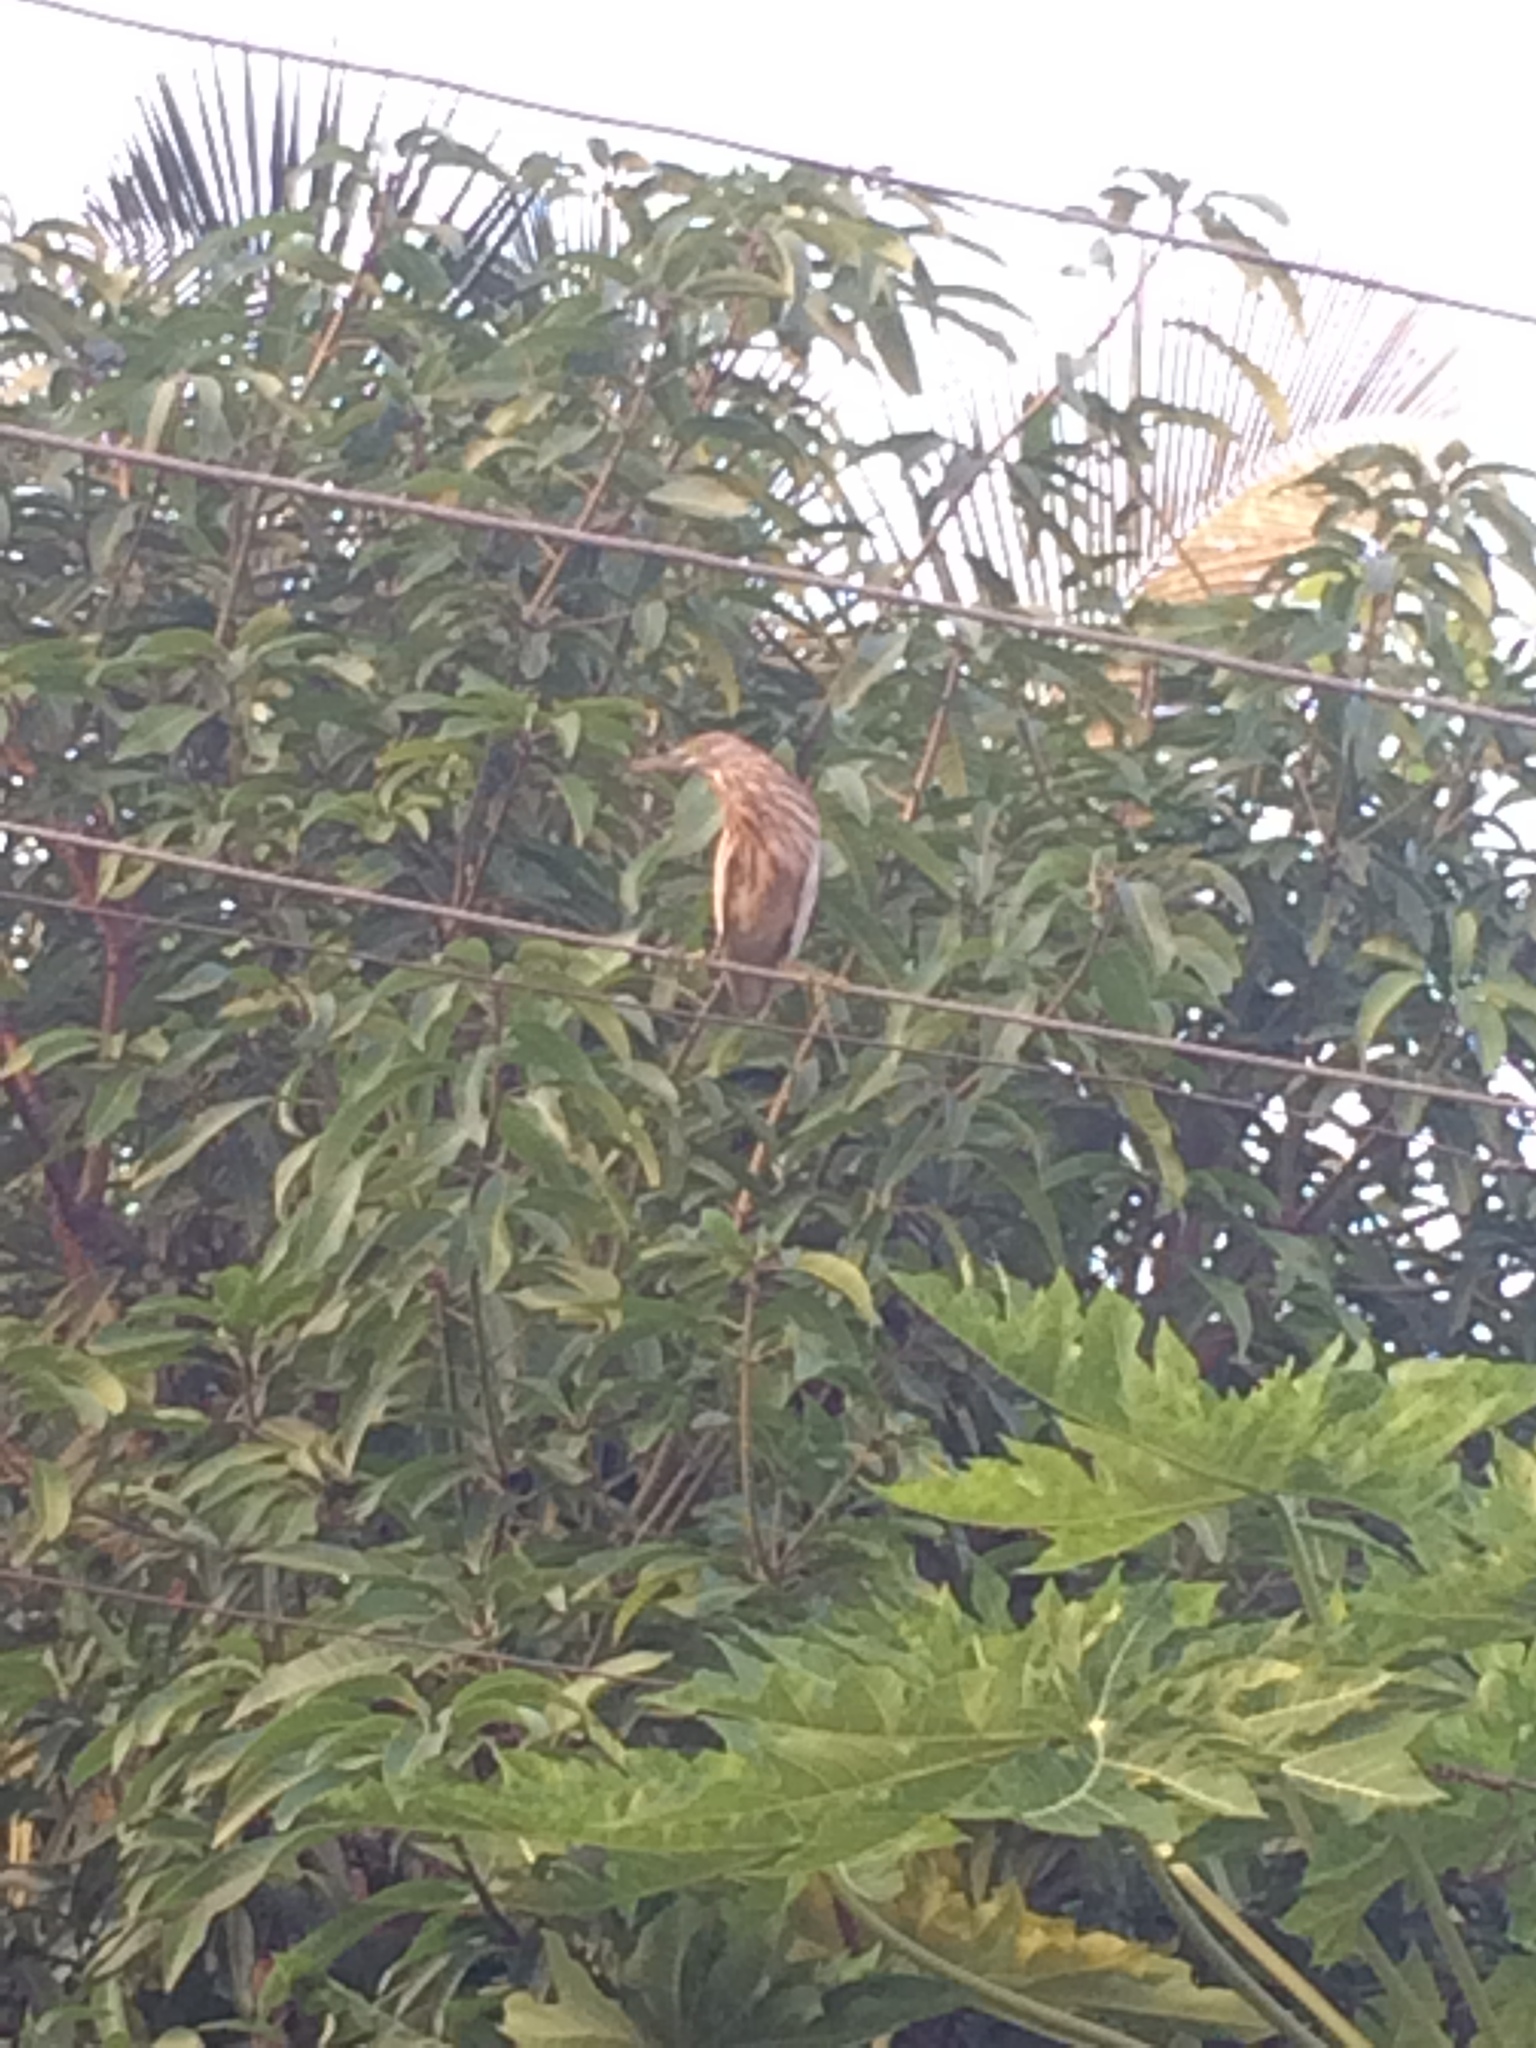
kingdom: Animalia
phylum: Chordata
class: Aves
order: Pelecaniformes
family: Ardeidae
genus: Ardeola
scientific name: Ardeola grayii
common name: Indian pond heron
